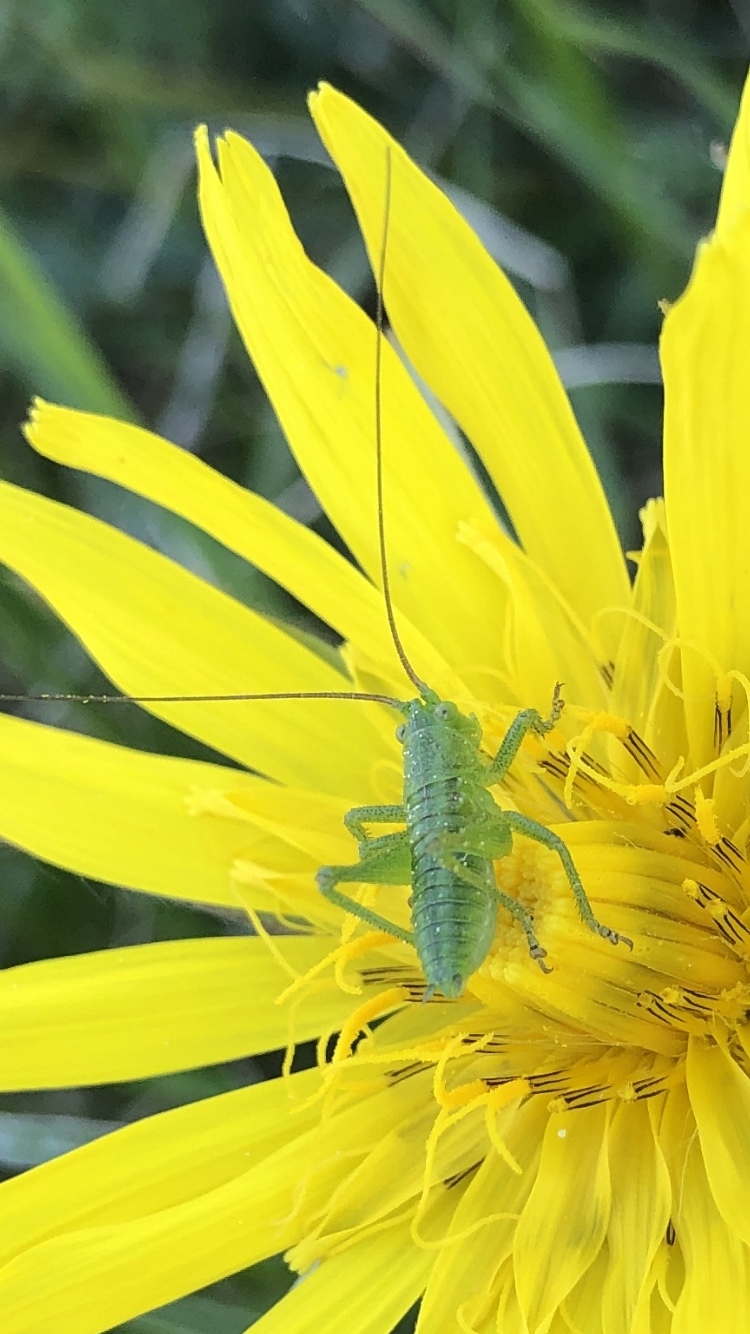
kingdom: Animalia
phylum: Arthropoda
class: Insecta
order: Orthoptera
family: Tettigoniidae
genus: Tettigonia
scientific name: Tettigonia viridissima
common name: Great green bush-cricket
